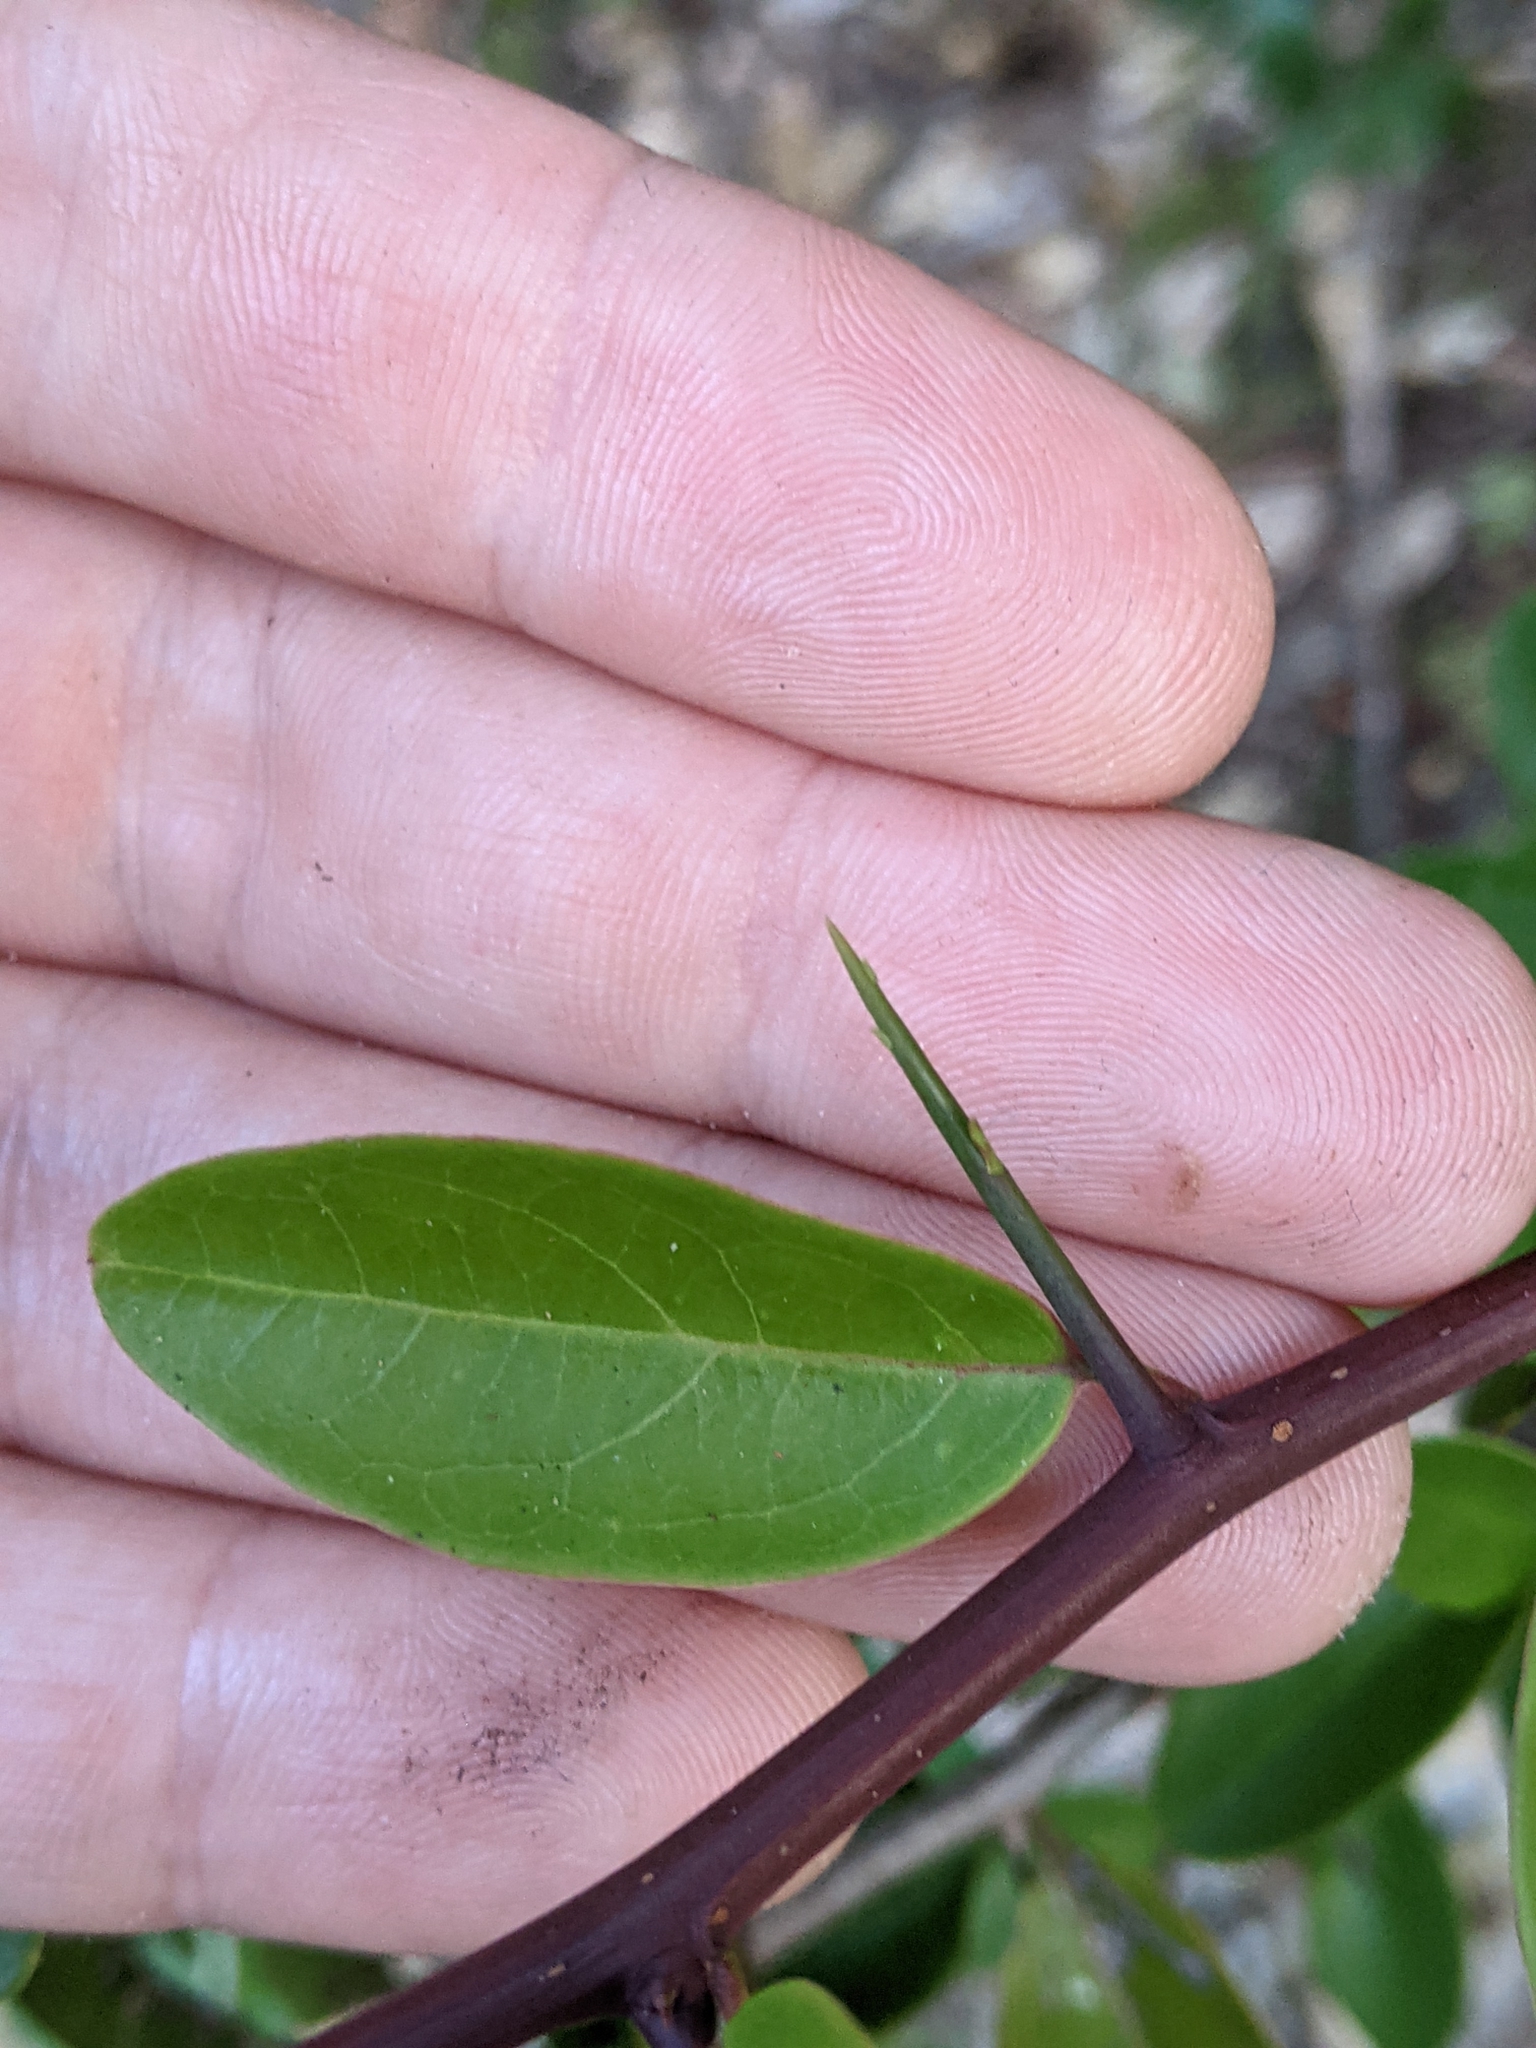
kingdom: Plantae
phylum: Tracheophyta
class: Magnoliopsida
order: Santalales
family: Ximeniaceae
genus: Ximenia
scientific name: Ximenia americana
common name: Tallowwood
